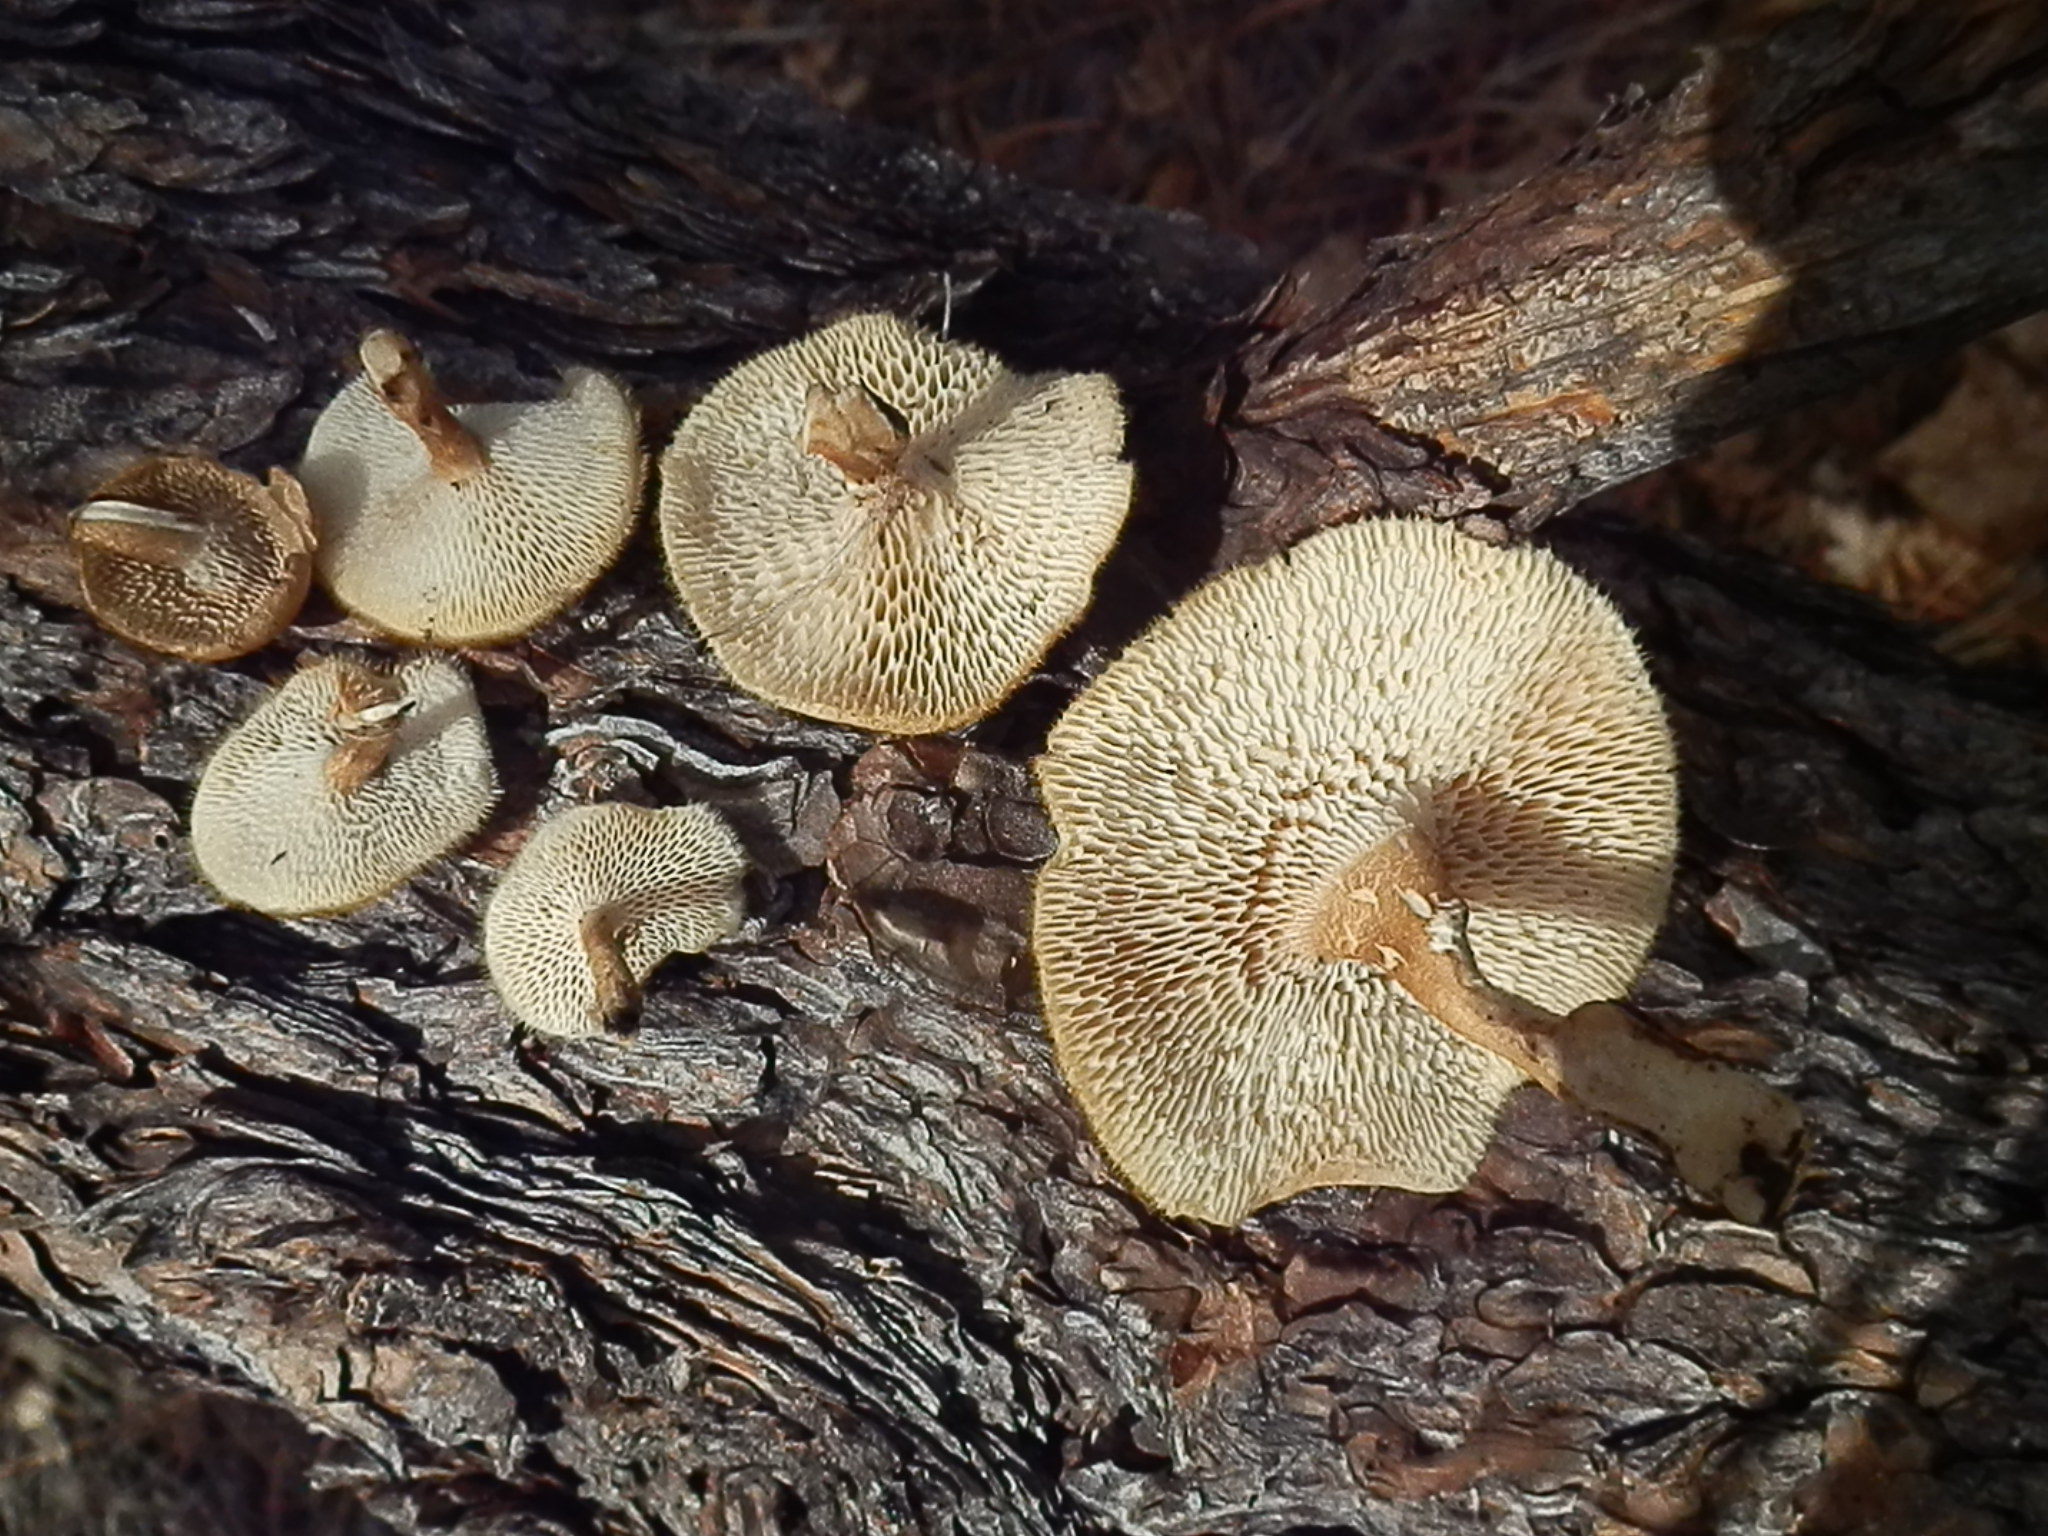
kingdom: Fungi
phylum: Basidiomycota
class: Agaricomycetes
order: Polyporales
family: Polyporaceae
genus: Lentinus
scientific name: Lentinus arcularius
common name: Spring polypore
